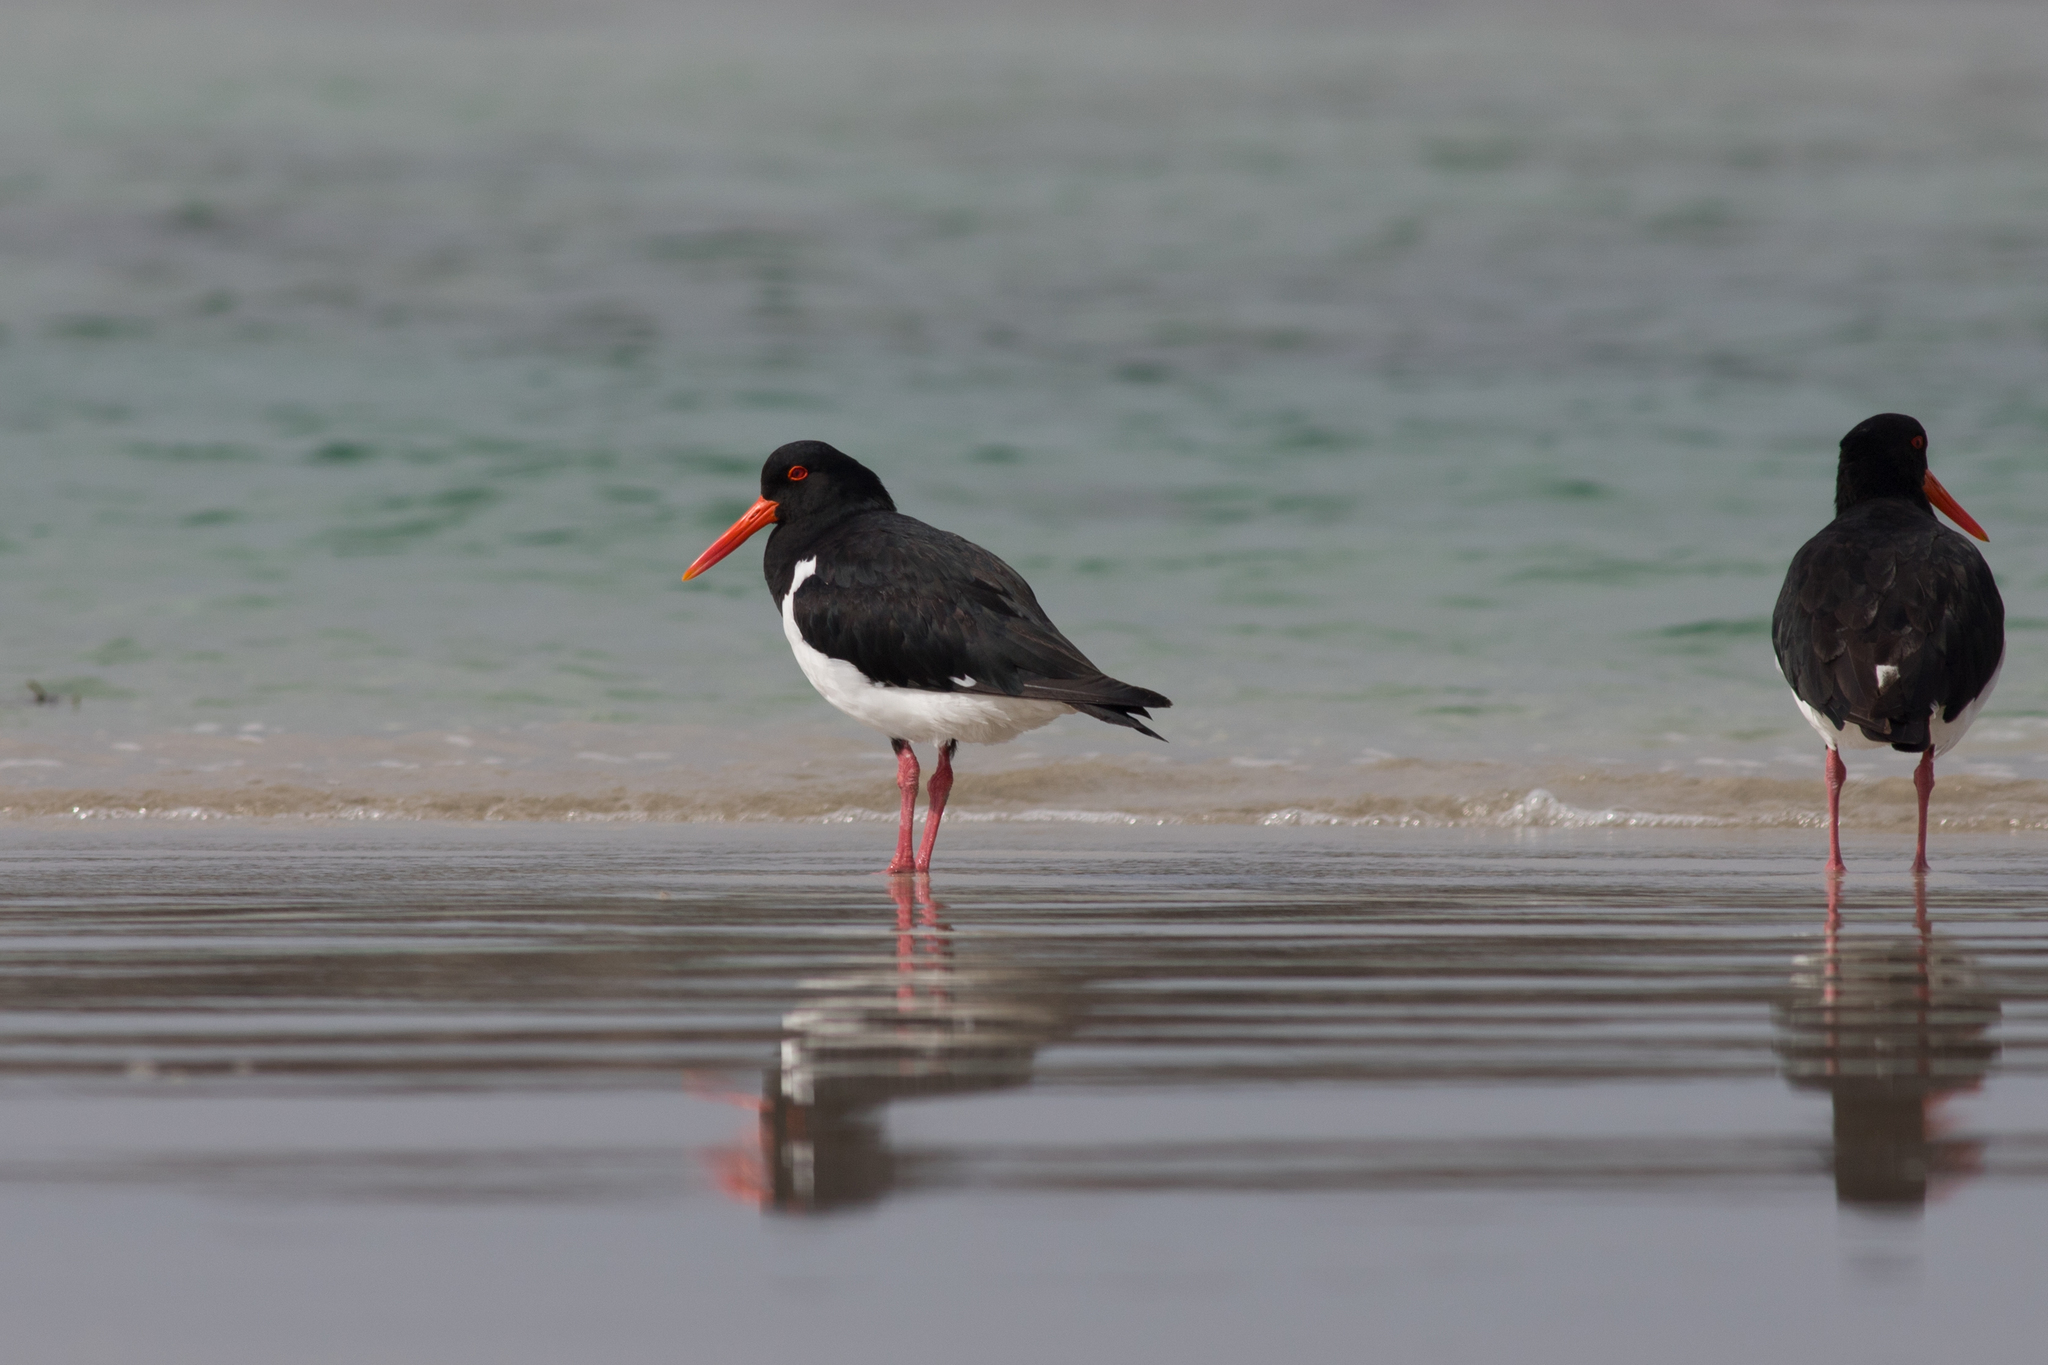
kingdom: Animalia
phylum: Chordata
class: Aves
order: Charadriiformes
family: Haematopodidae
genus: Haematopus
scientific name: Haematopus longirostris
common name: Pied oystercatcher
